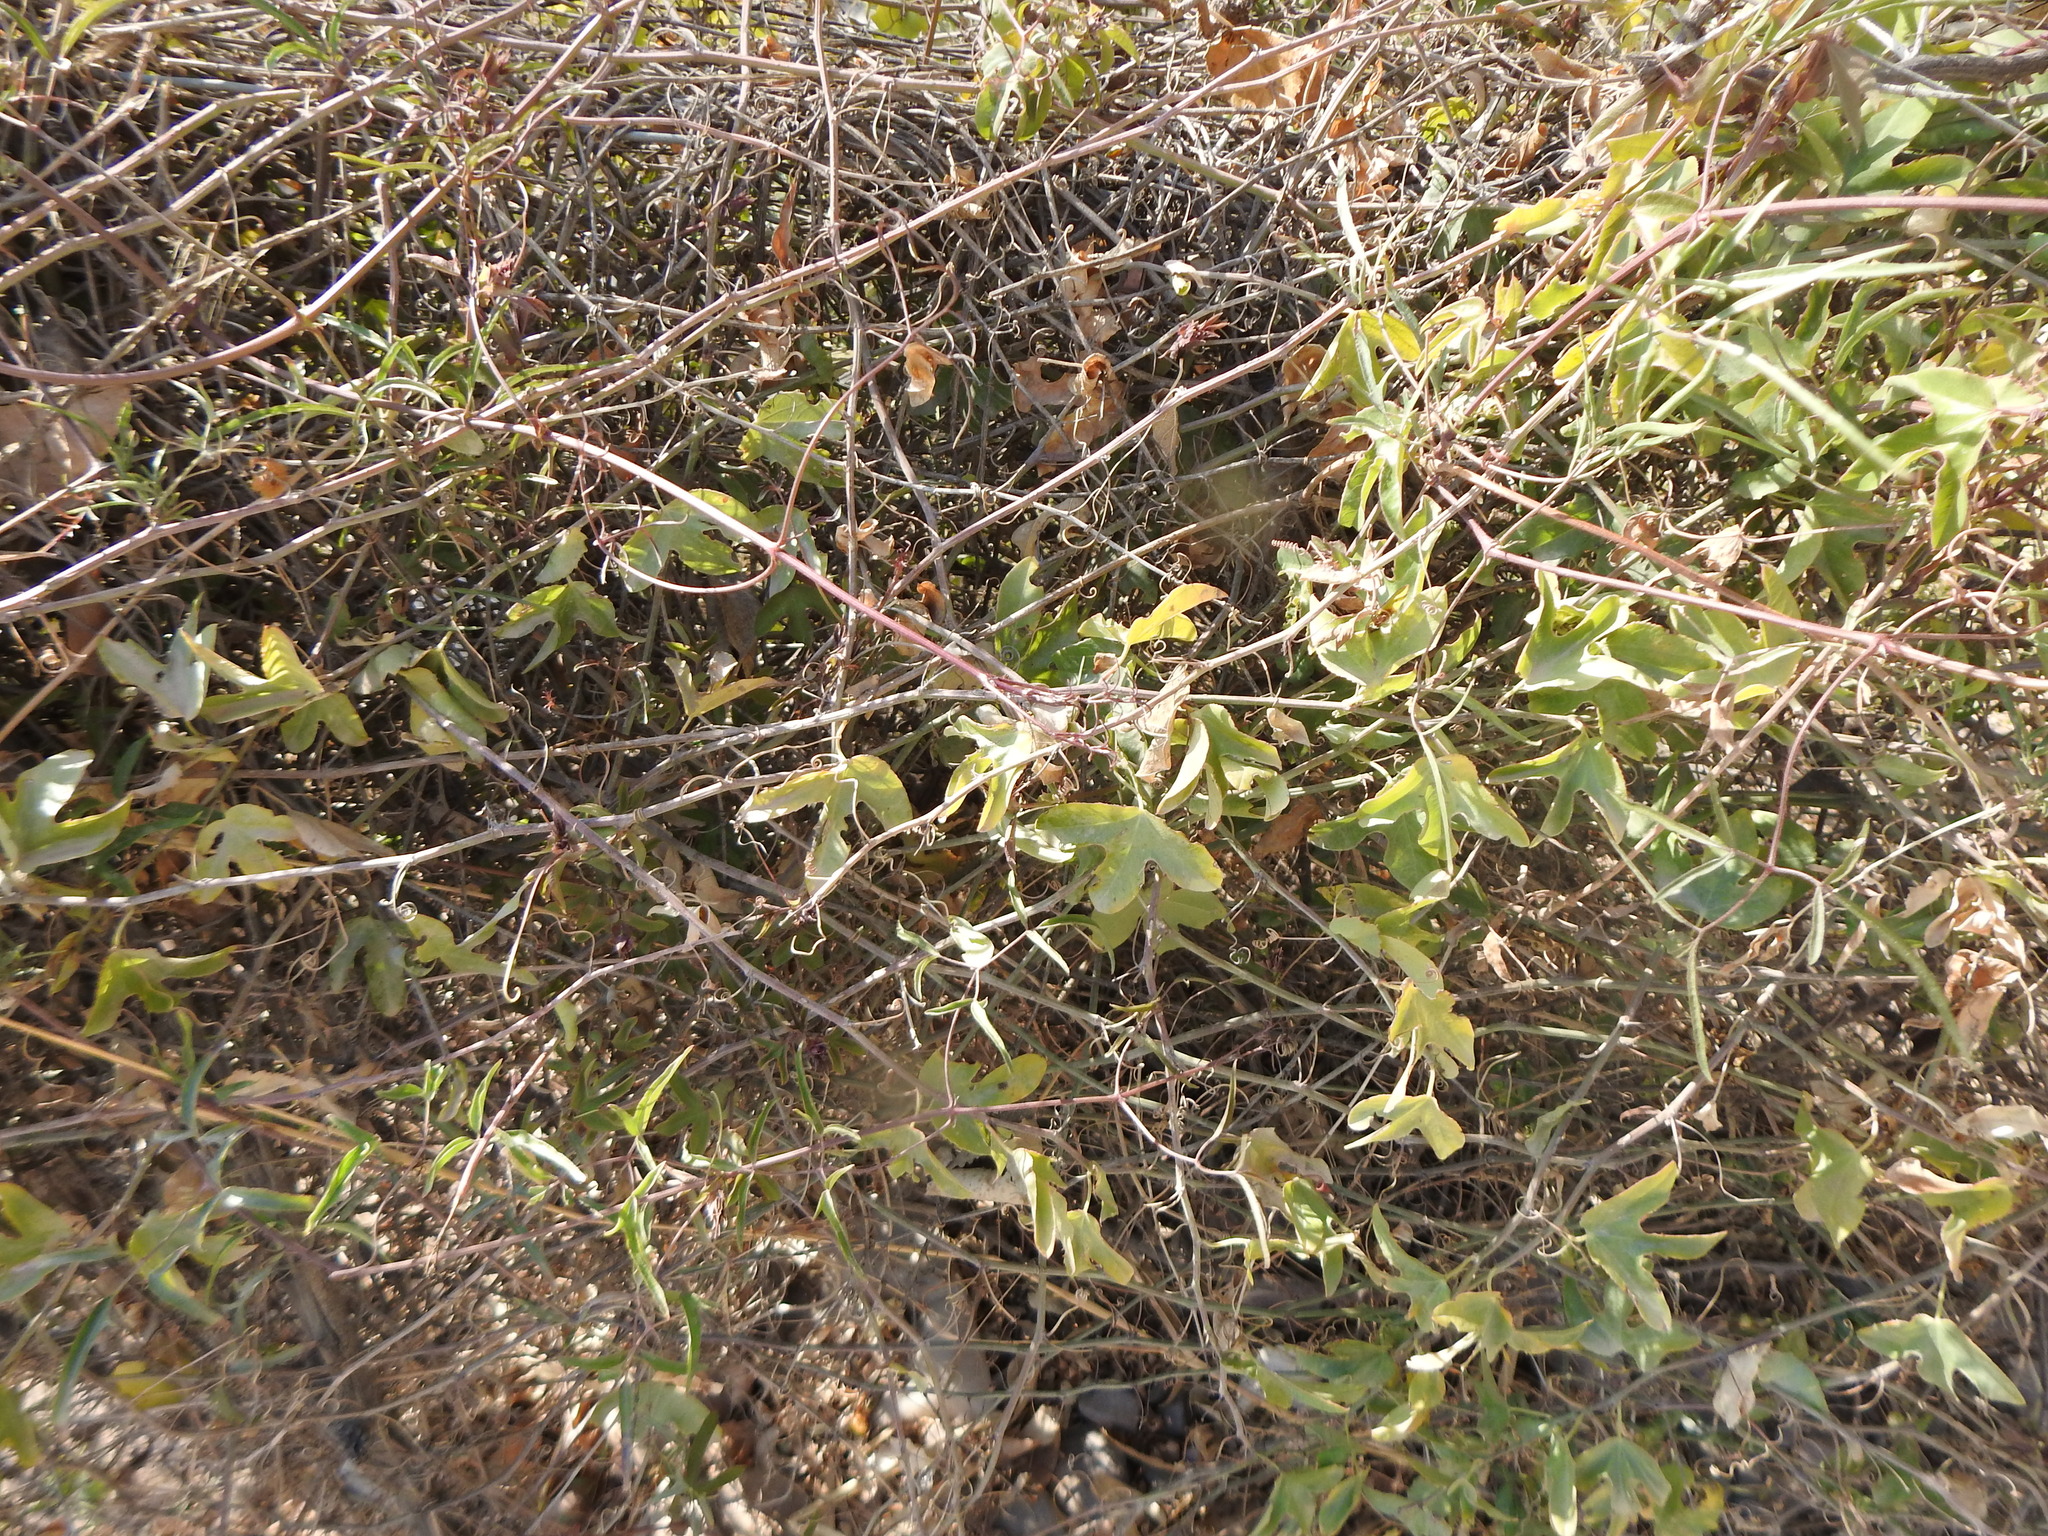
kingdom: Plantae
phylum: Tracheophyta
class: Magnoliopsida
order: Malpighiales
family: Passifloraceae
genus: Passiflora
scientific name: Passiflora tucumanensis
